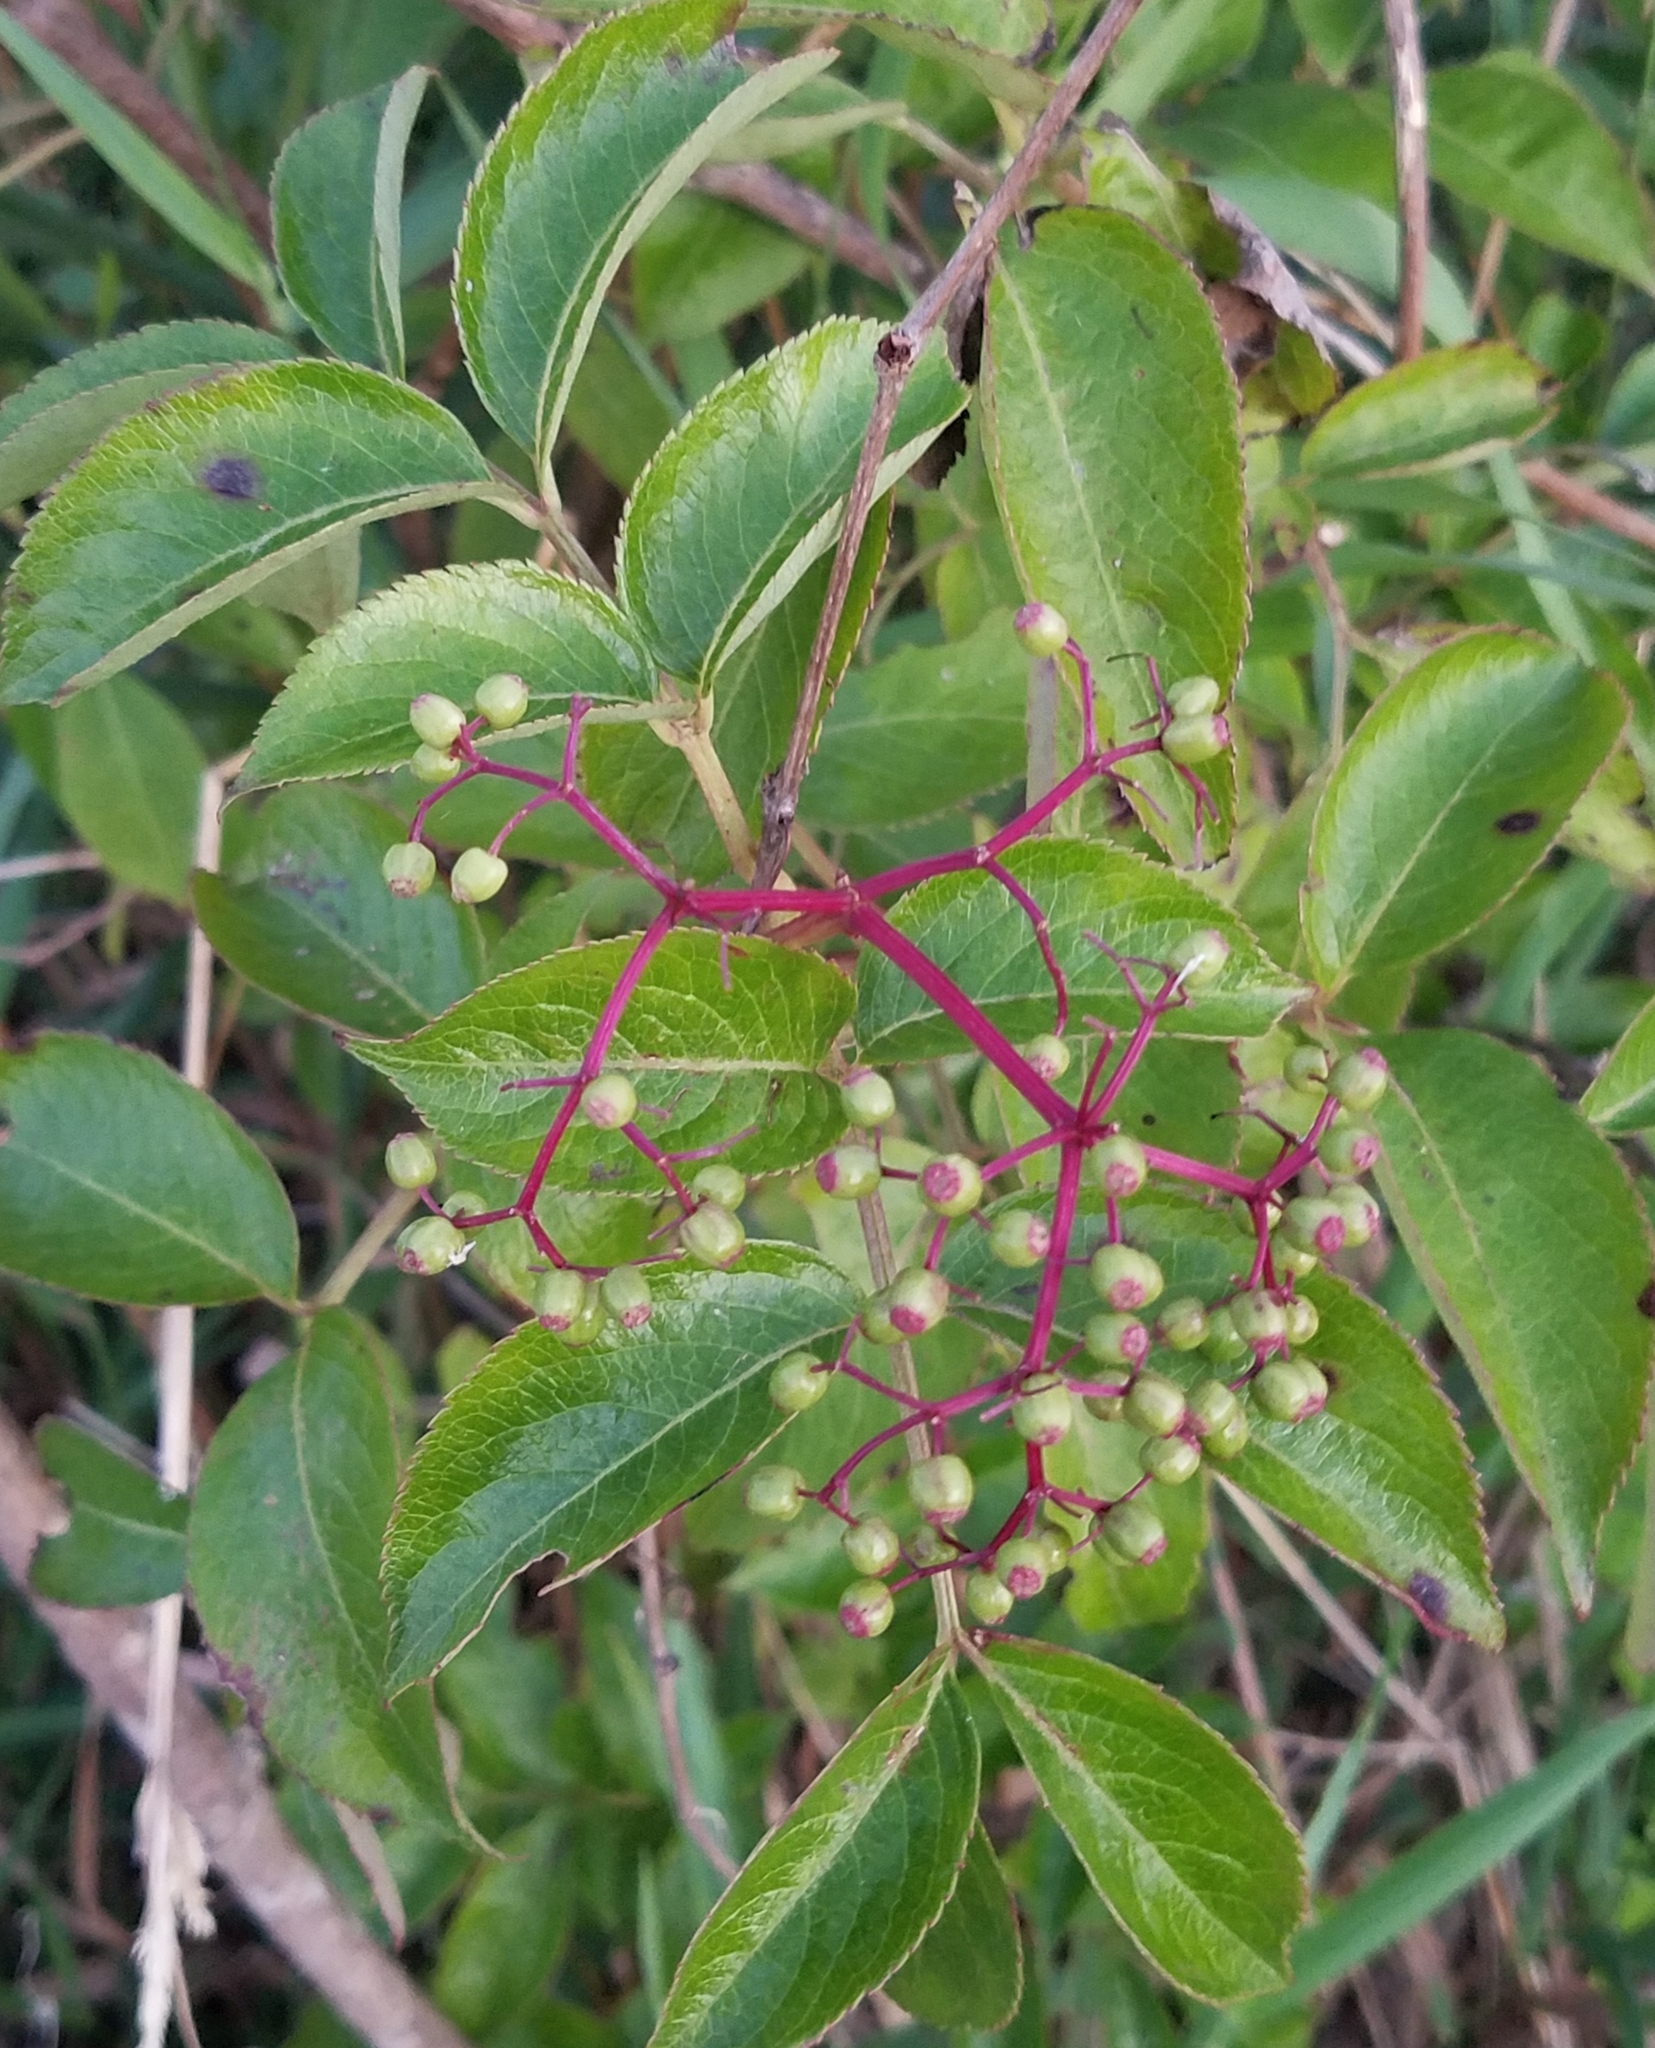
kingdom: Plantae
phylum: Tracheophyta
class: Magnoliopsida
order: Dipsacales
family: Viburnaceae
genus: Sambucus
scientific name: Sambucus canadensis
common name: American elder
